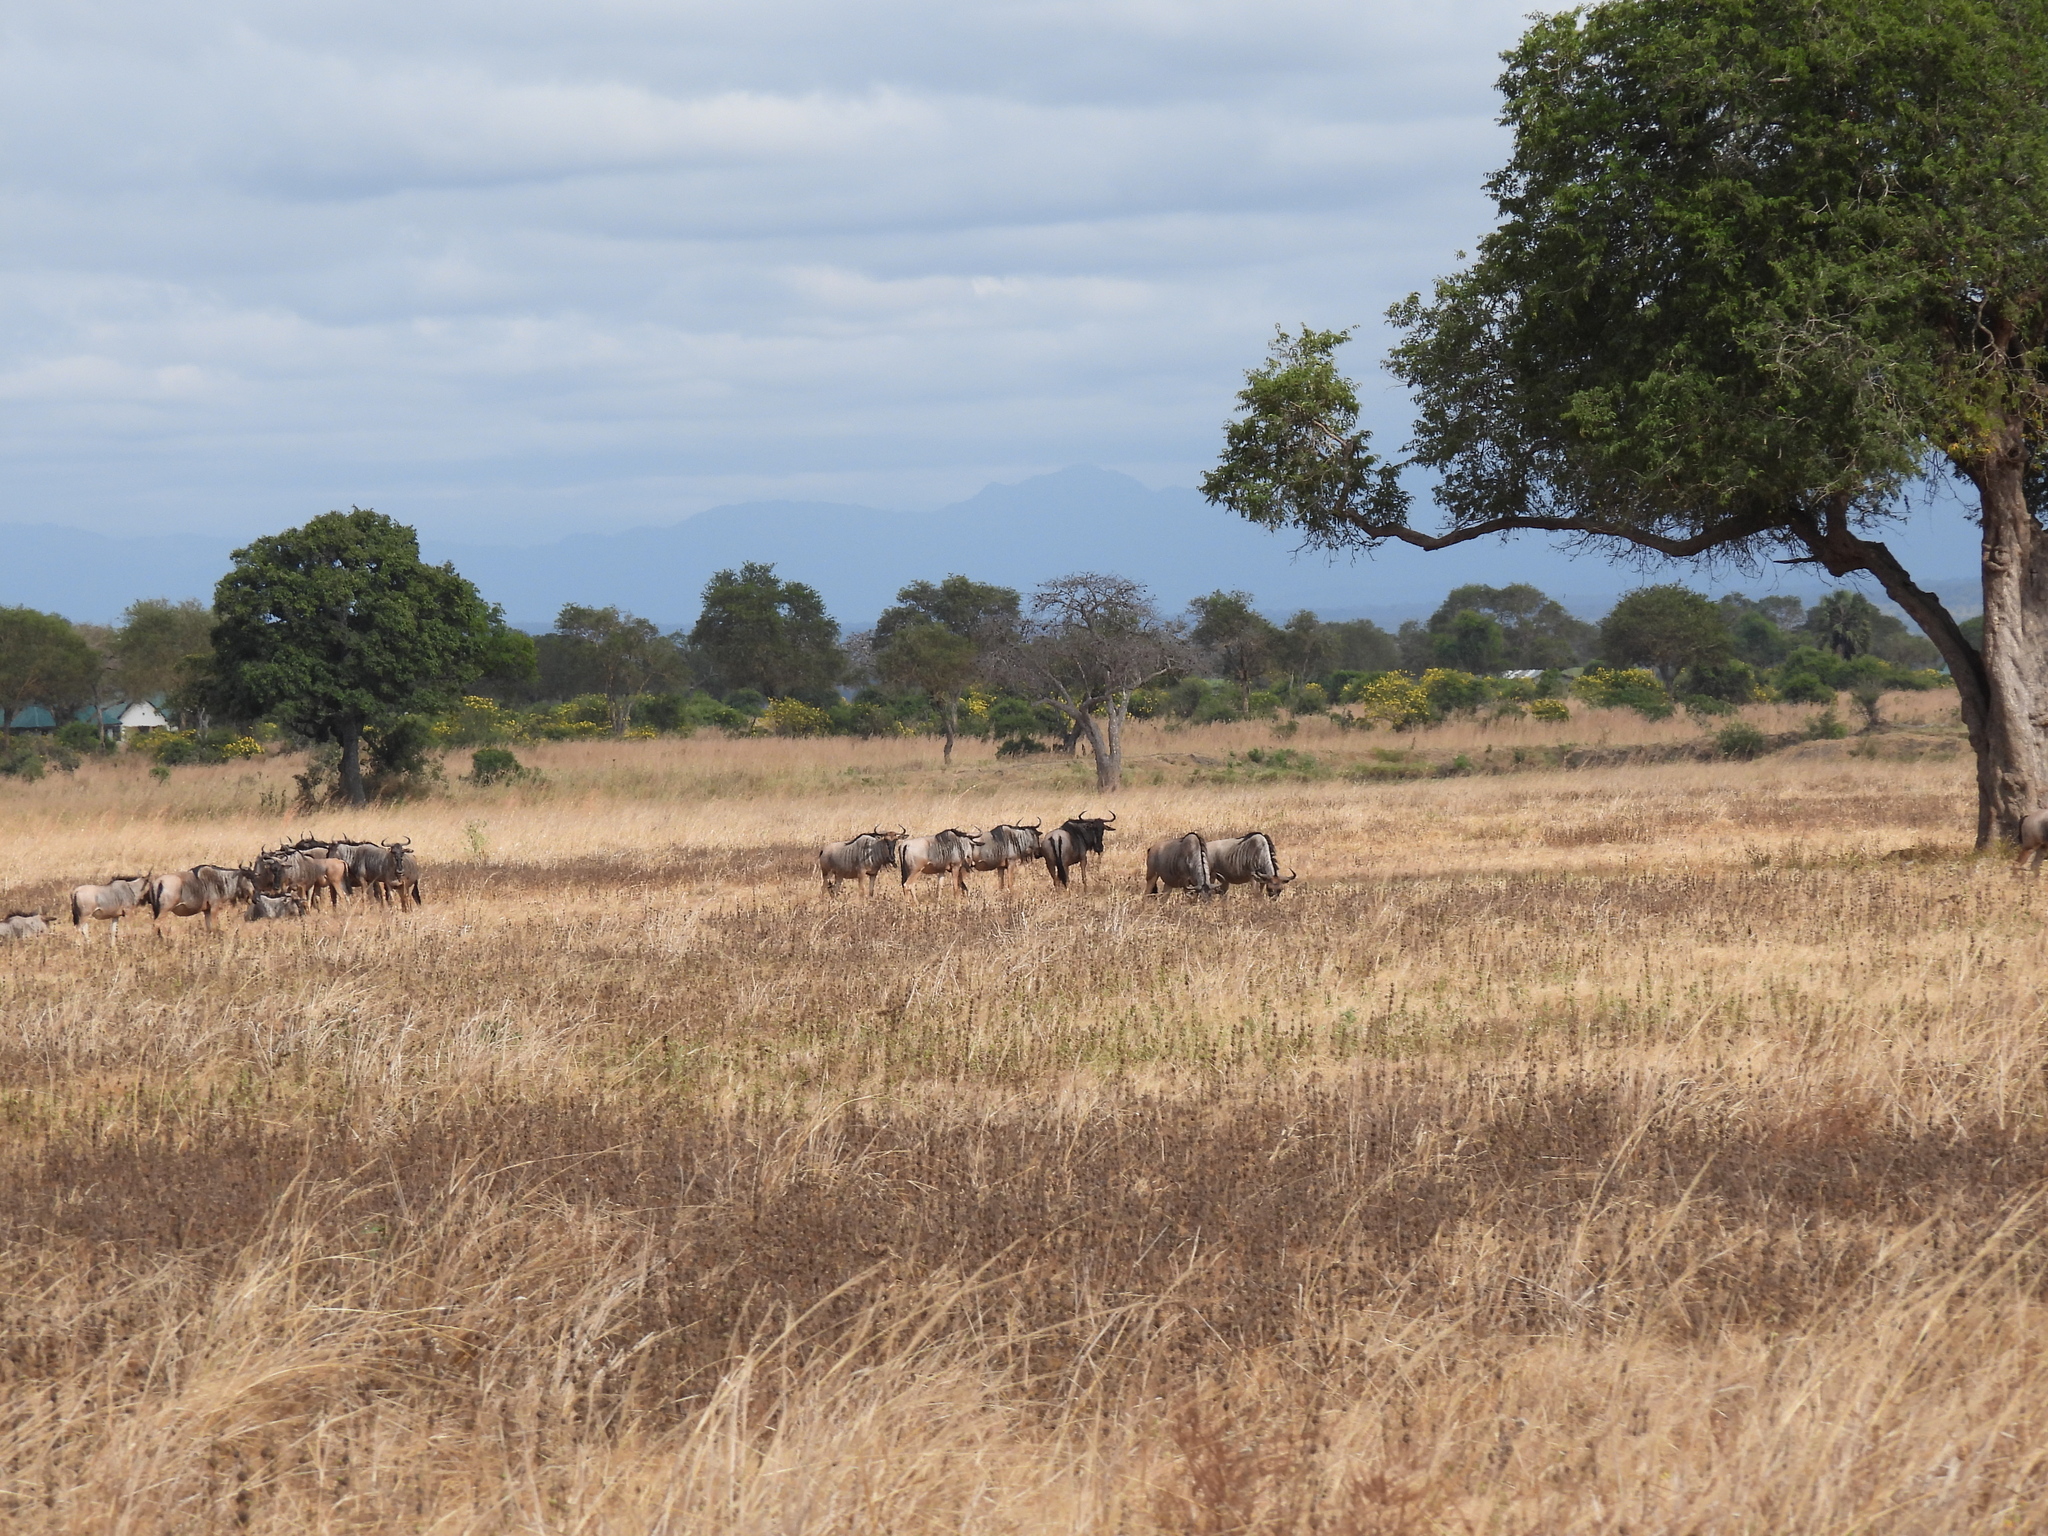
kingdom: Animalia
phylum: Chordata
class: Mammalia
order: Artiodactyla
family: Bovidae
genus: Connochaetes
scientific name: Connochaetes taurinus
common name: Blue wildebeest
